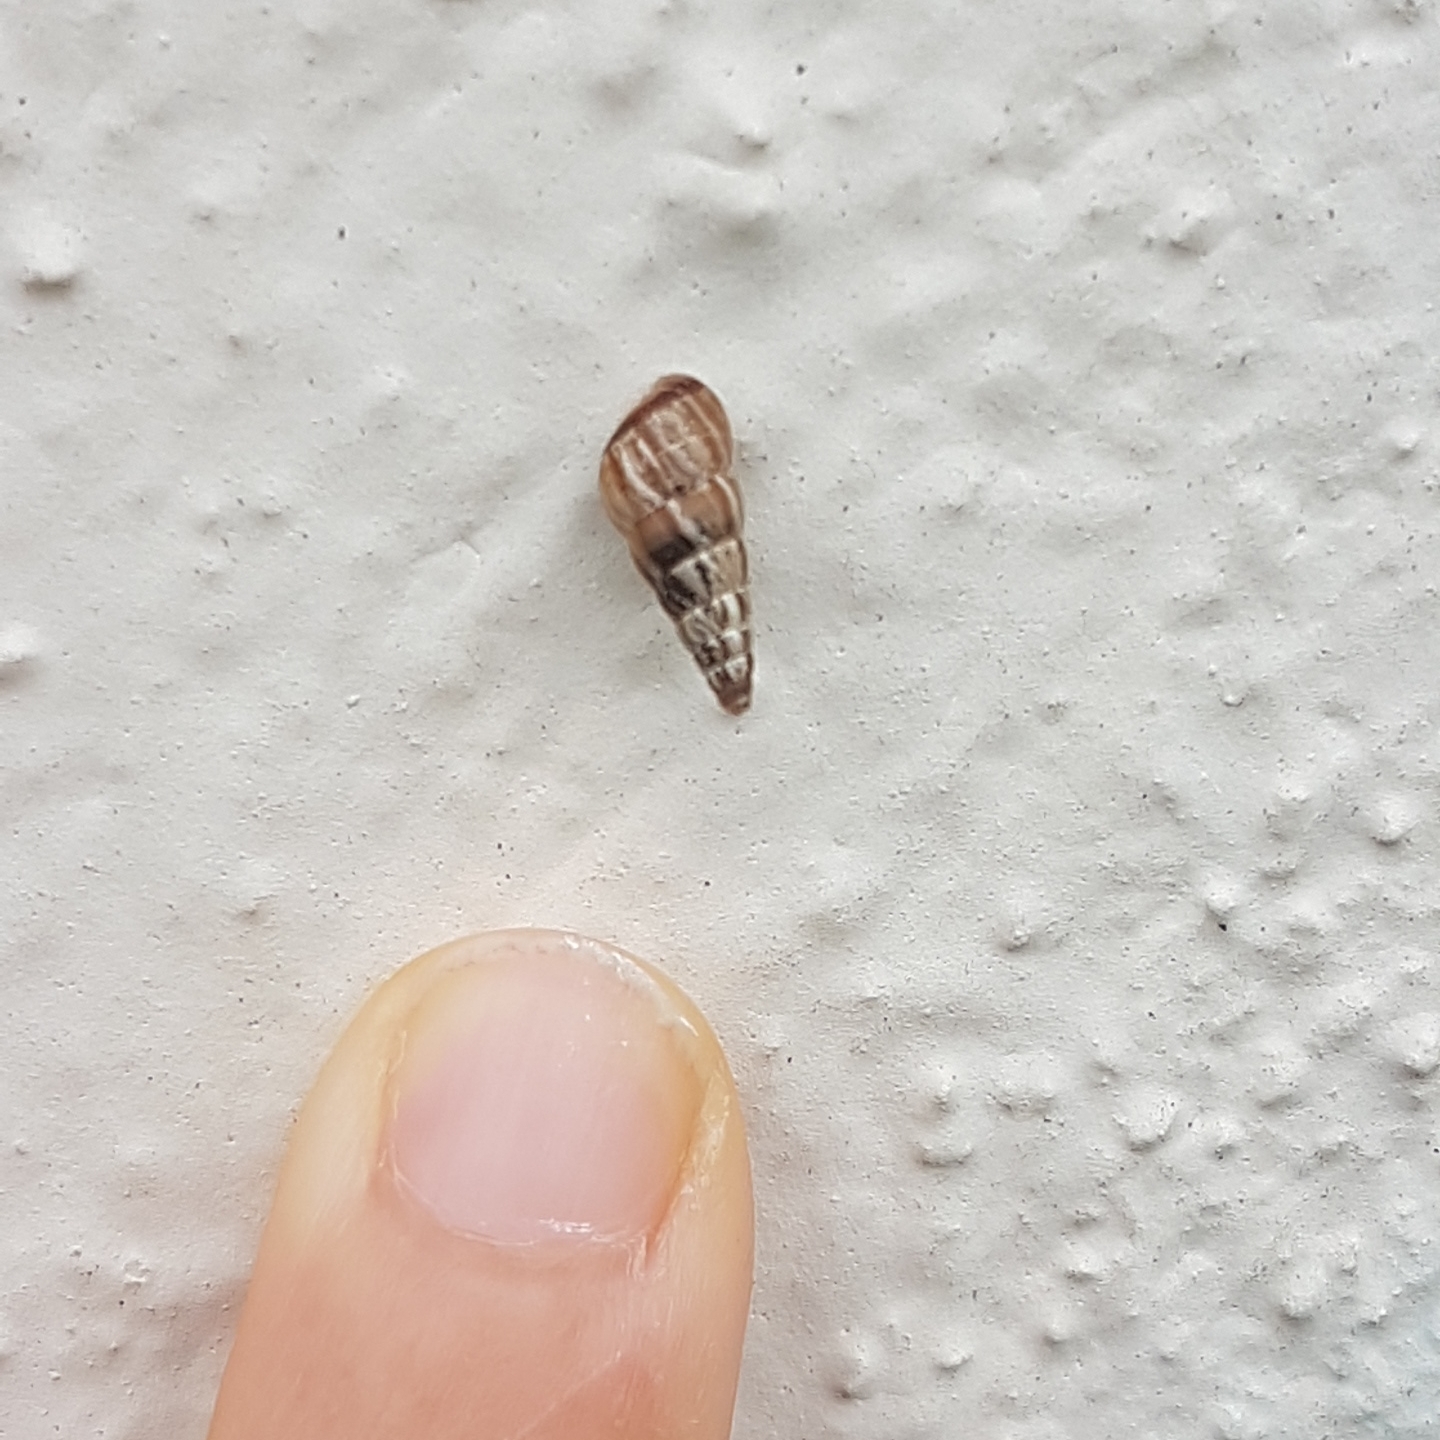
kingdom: Animalia
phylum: Mollusca
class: Gastropoda
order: Stylommatophora
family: Geomitridae
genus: Cochlicella
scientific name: Cochlicella acuta
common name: Pointed snail
